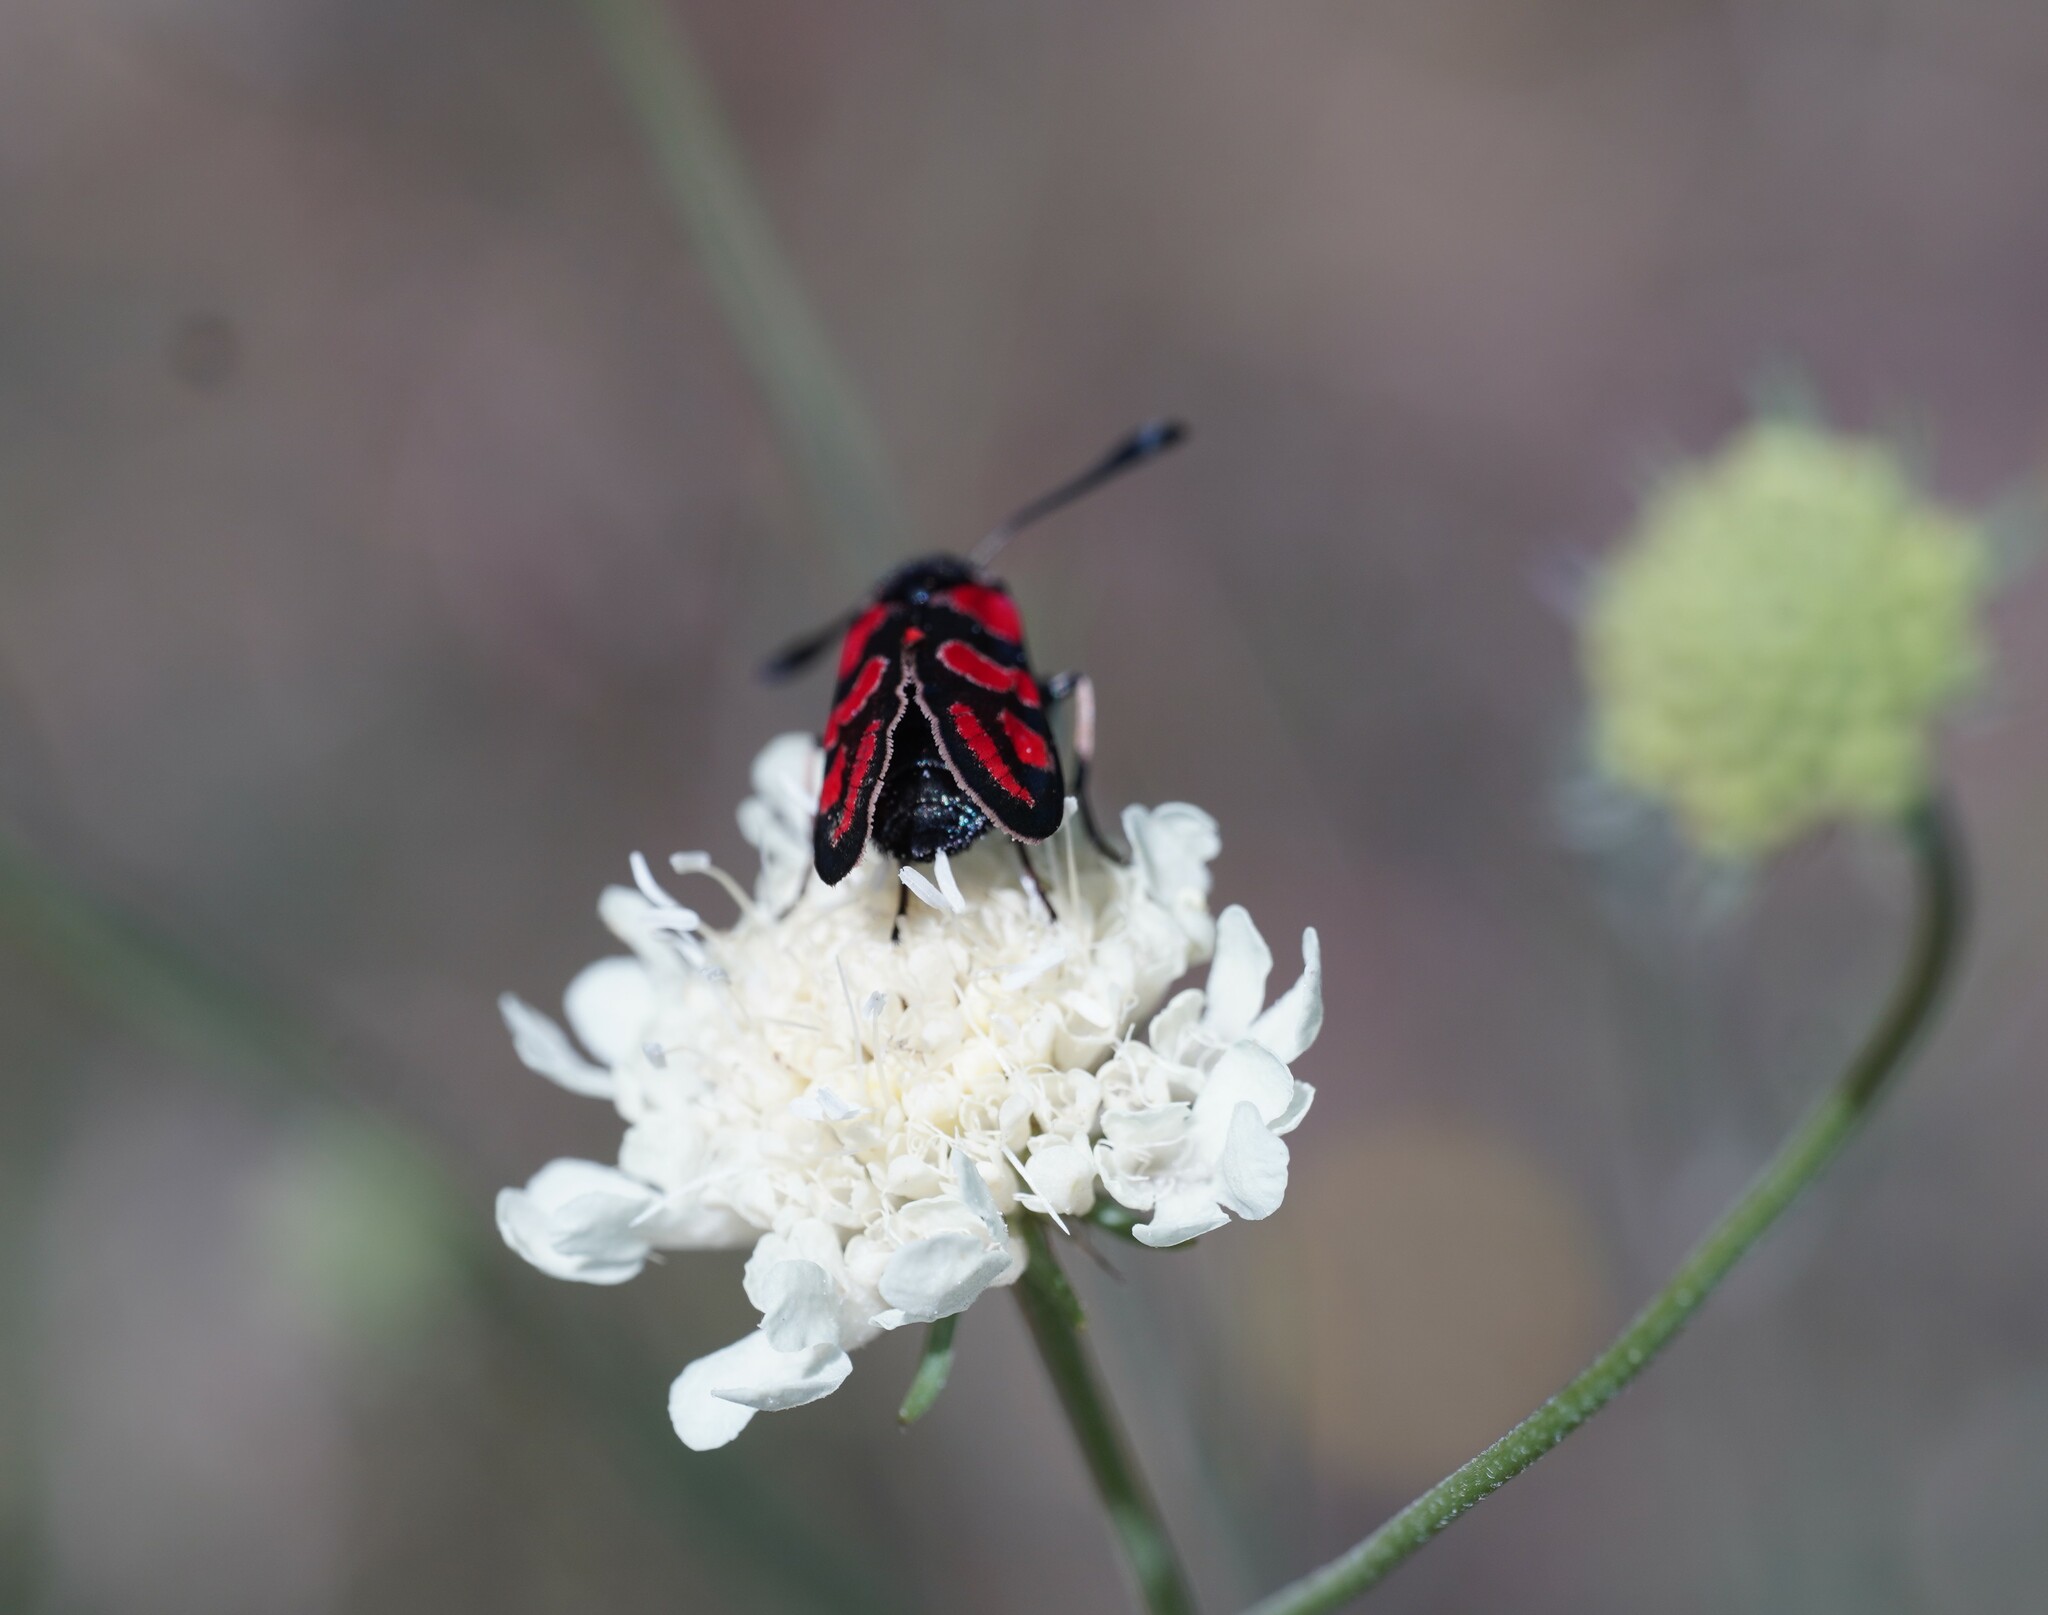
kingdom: Animalia
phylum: Arthropoda
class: Insecta
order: Lepidoptera
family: Zygaenidae
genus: Zygaena
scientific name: Zygaena carniolica
